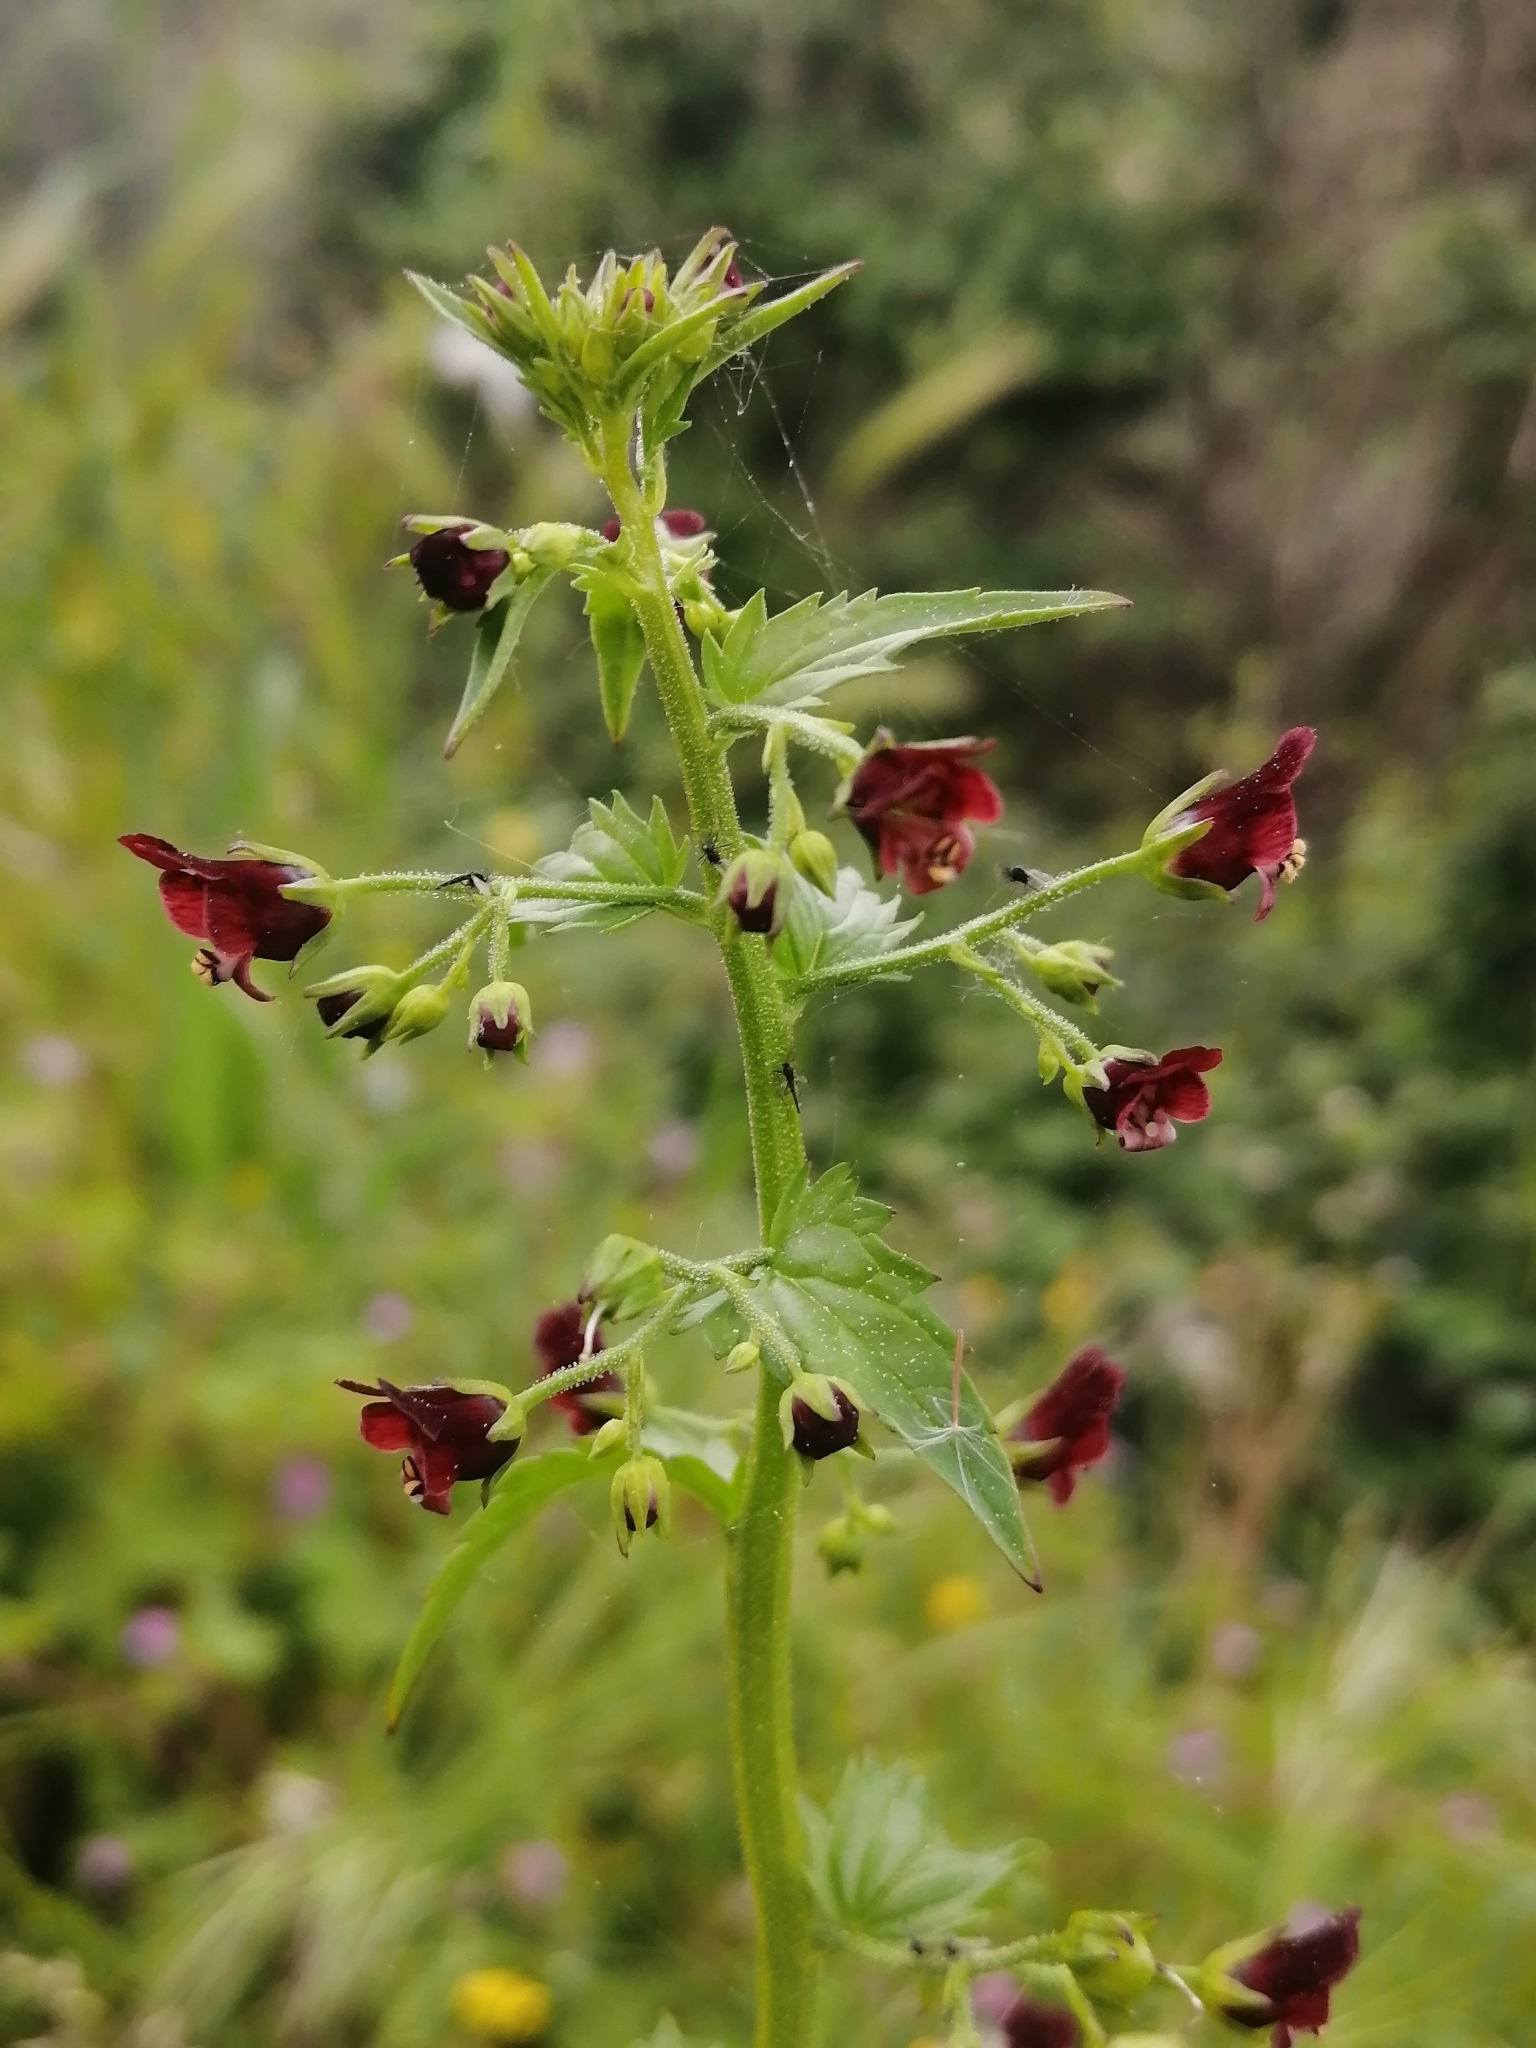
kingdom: Plantae
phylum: Tracheophyta
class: Magnoliopsida
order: Lamiales
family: Scrophulariaceae
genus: Scrophularia
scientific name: Scrophularia peregrina
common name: Mediterranean figwort
